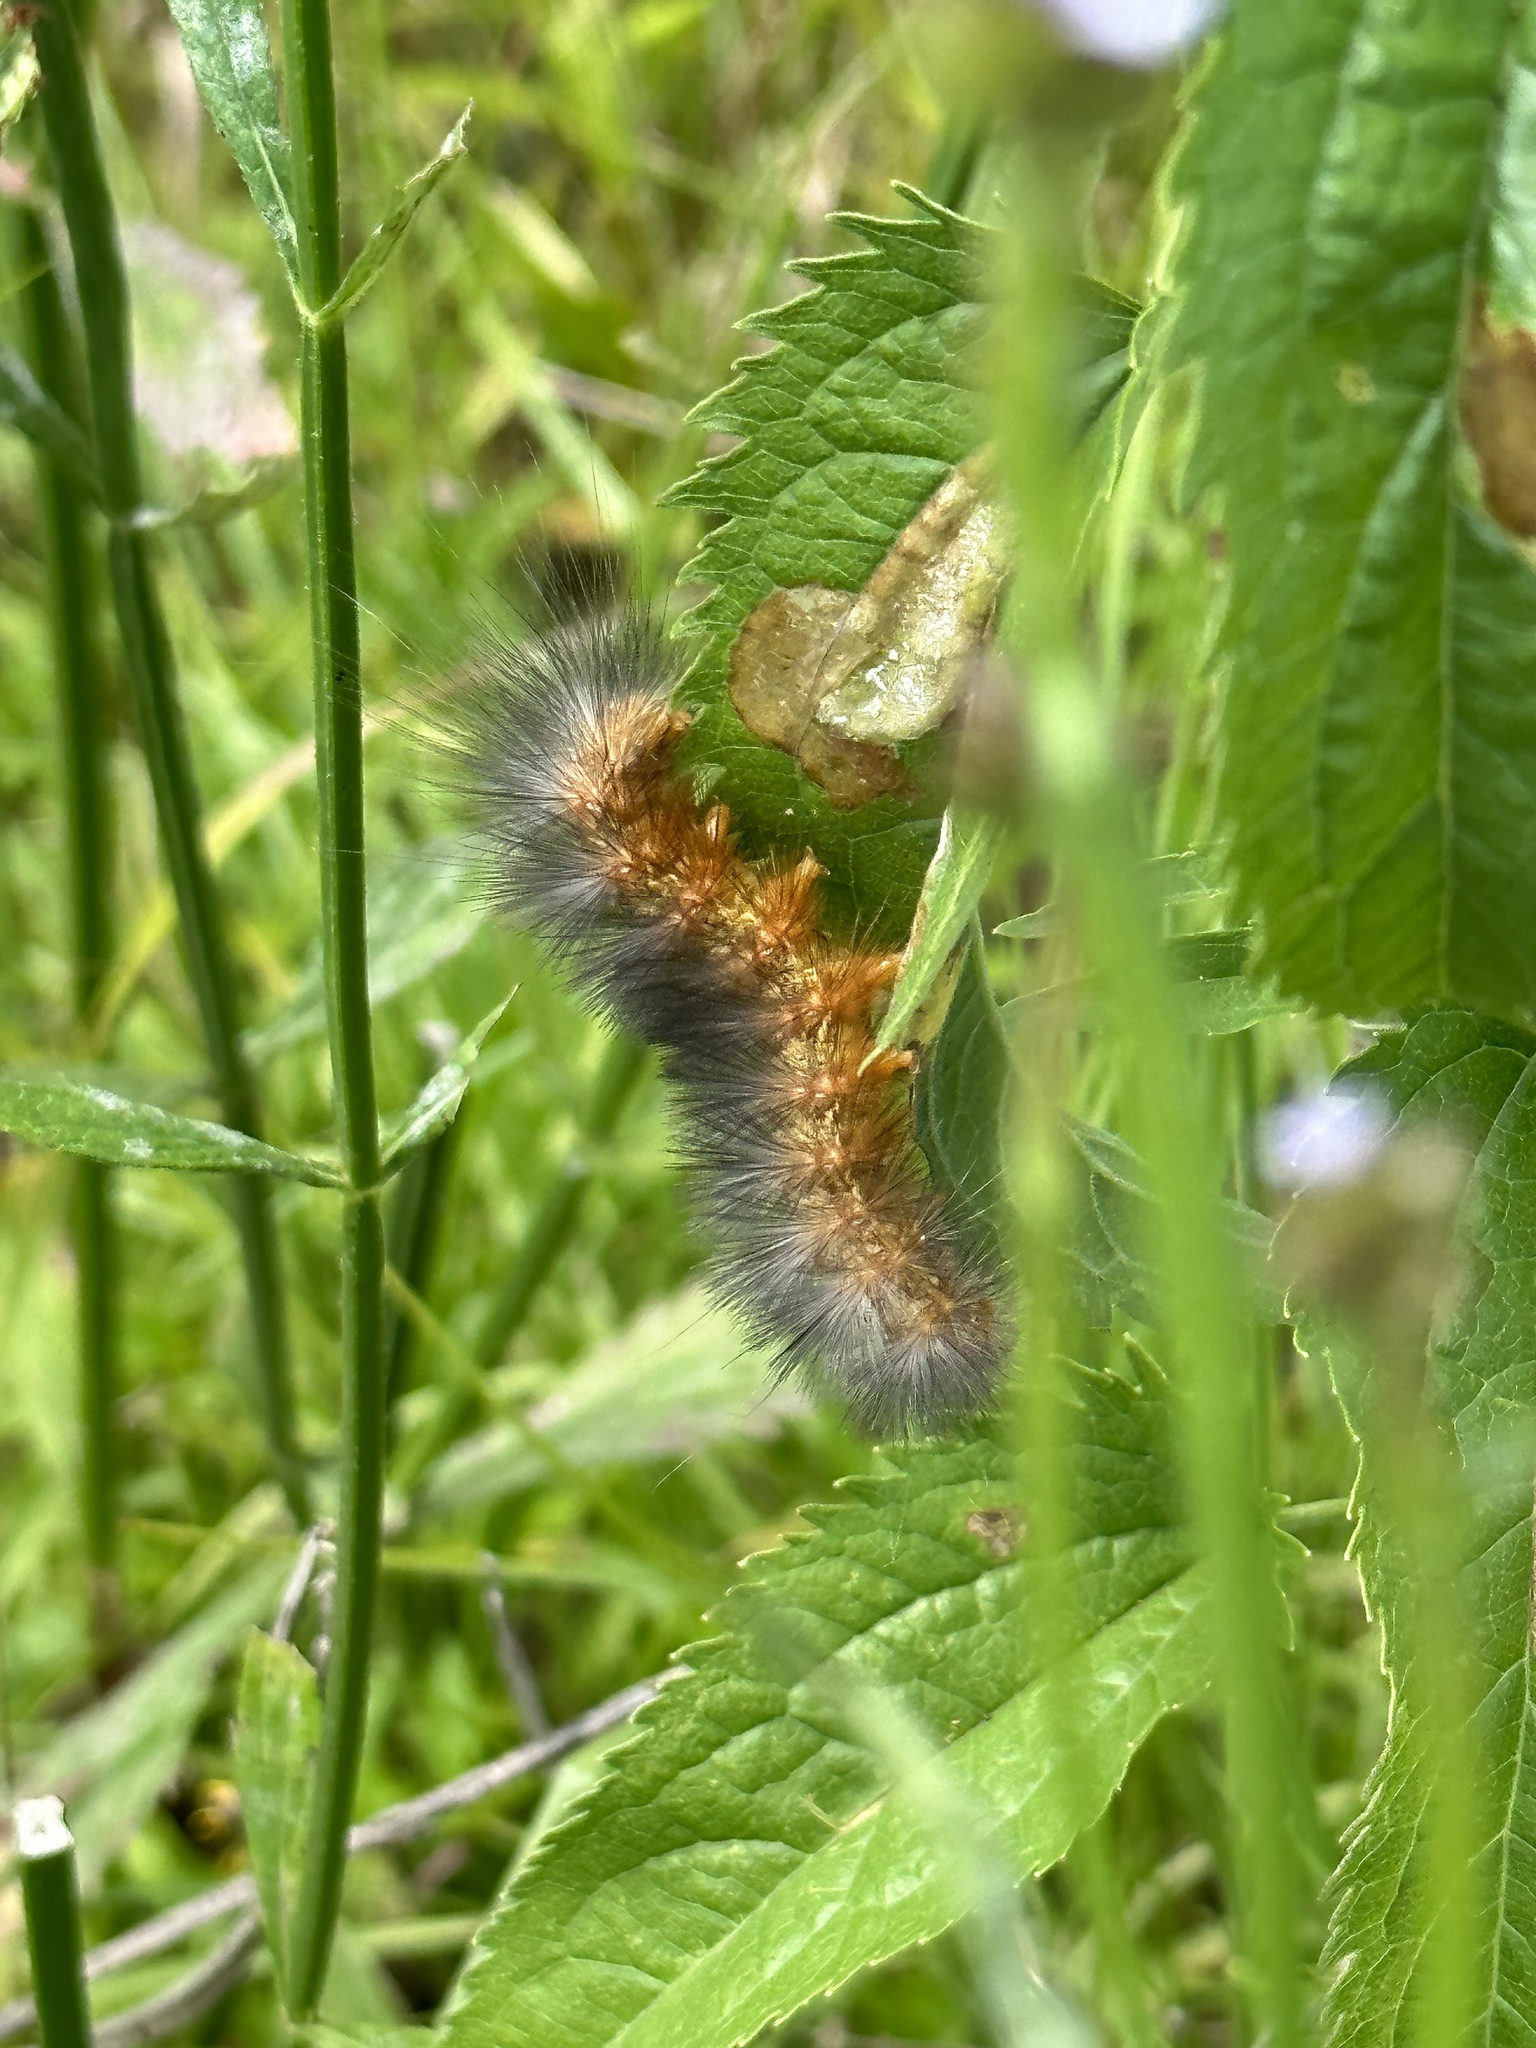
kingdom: Animalia
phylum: Arthropoda
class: Insecta
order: Lepidoptera
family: Erebidae
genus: Estigmene
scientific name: Estigmene acrea
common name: Salt marsh moth
